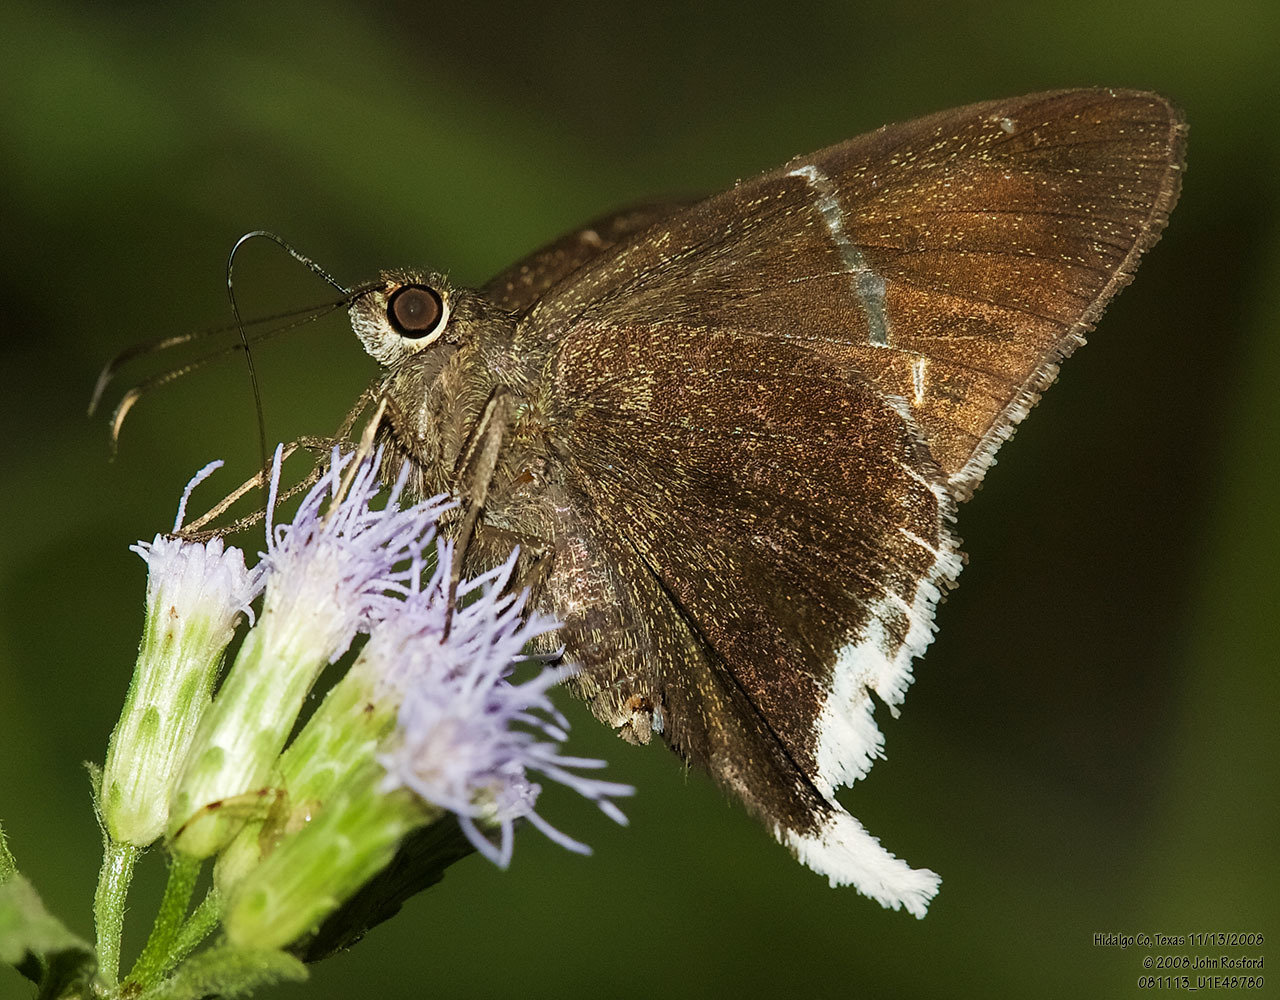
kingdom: Animalia
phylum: Arthropoda
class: Insecta
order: Lepidoptera
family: Hesperiidae
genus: Achalarus
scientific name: Achalarus
